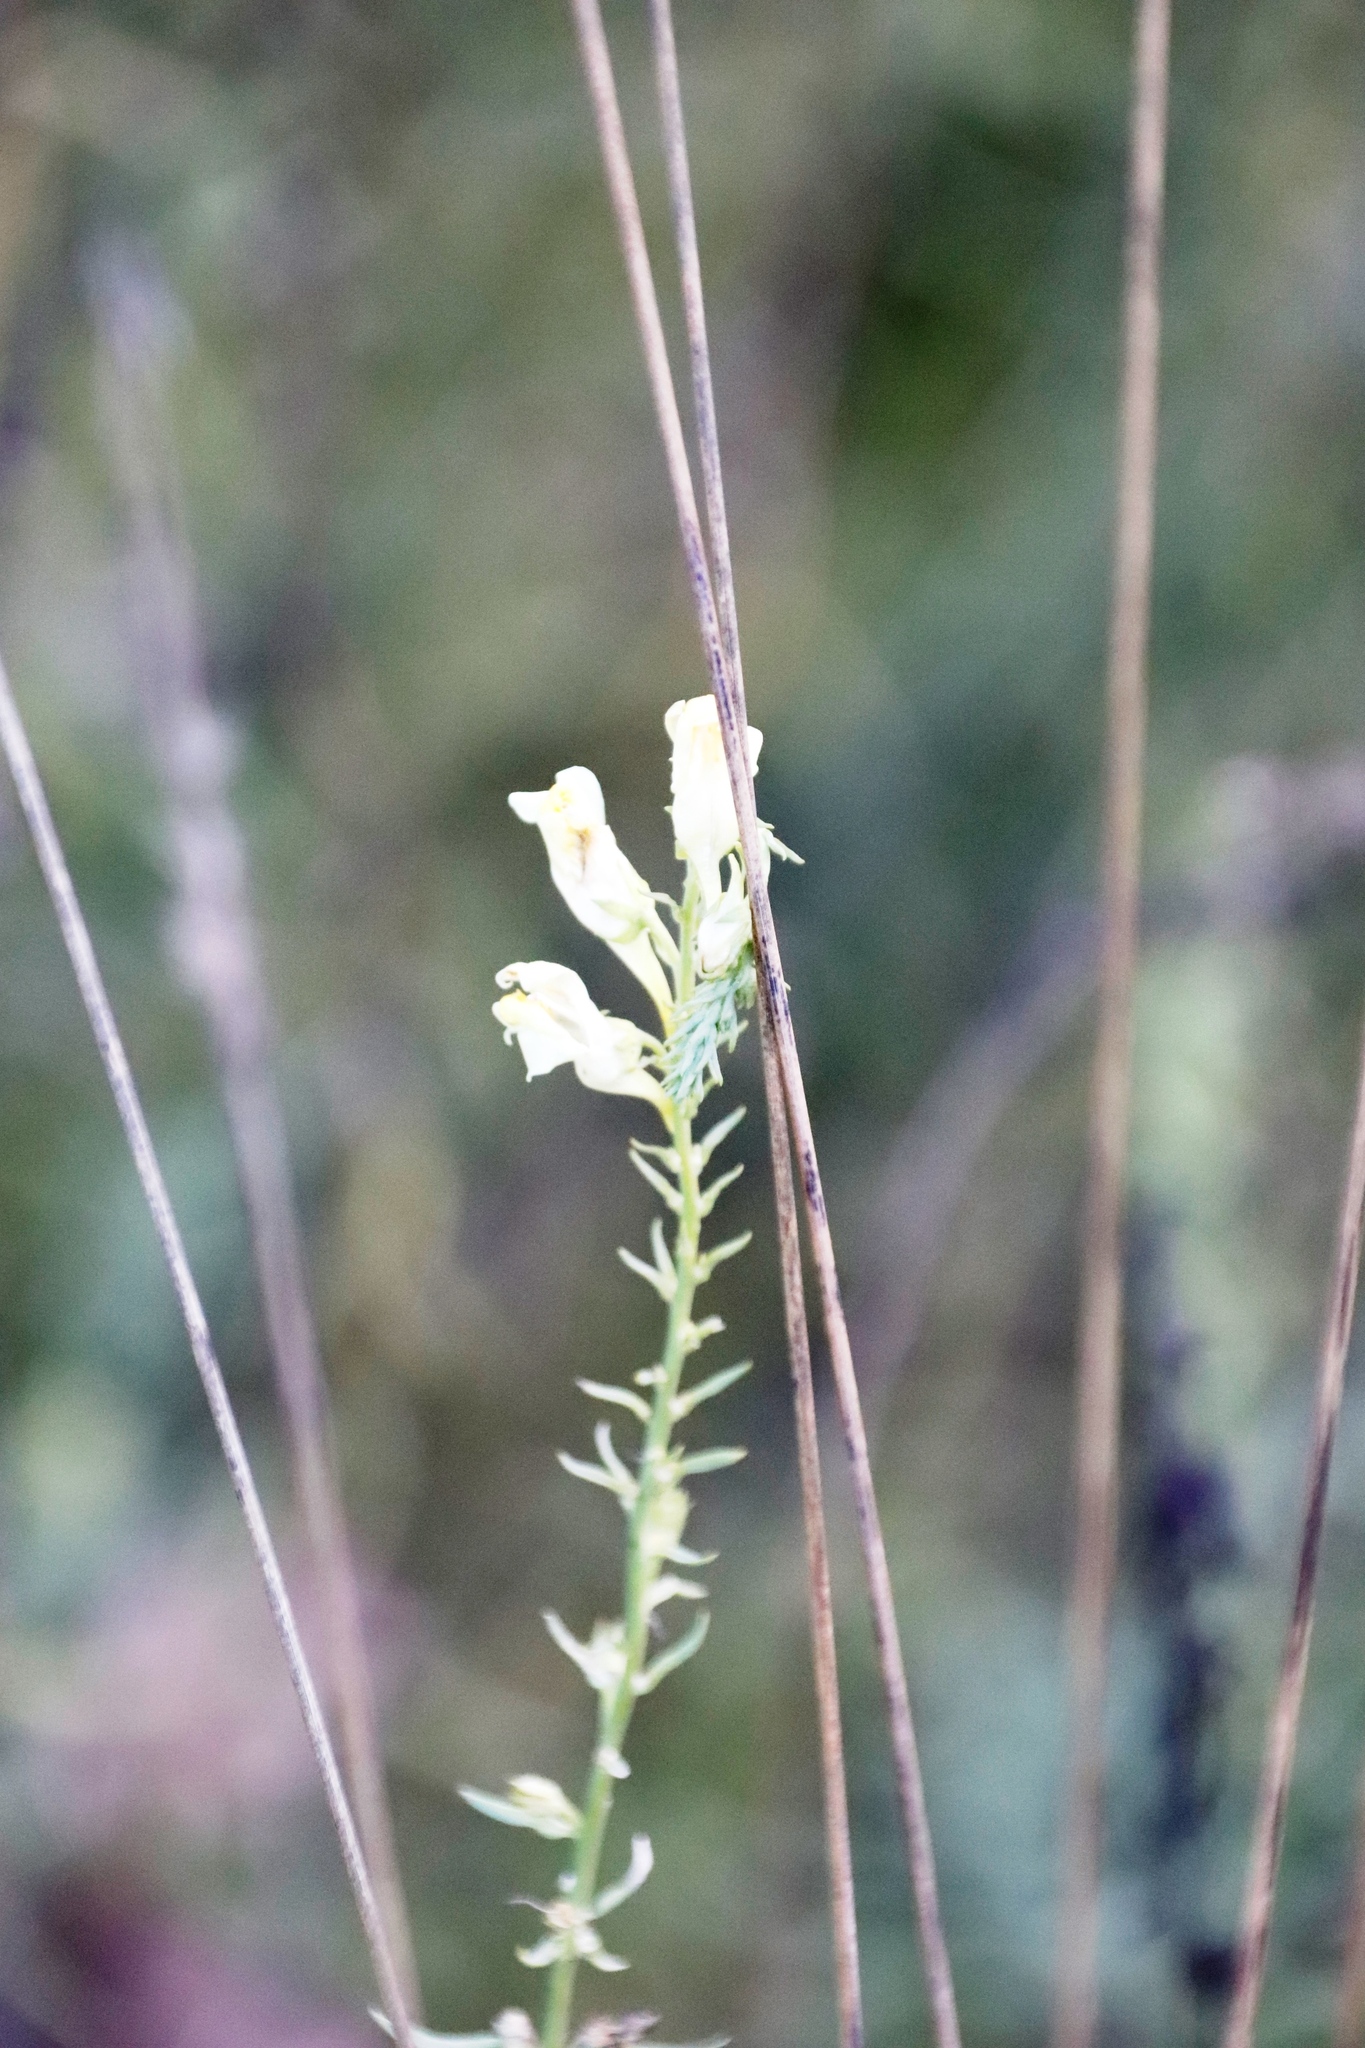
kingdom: Plantae
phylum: Tracheophyta
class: Magnoliopsida
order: Lamiales
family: Plantaginaceae
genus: Linaria
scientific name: Linaria vulgaris
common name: Butter and eggs
